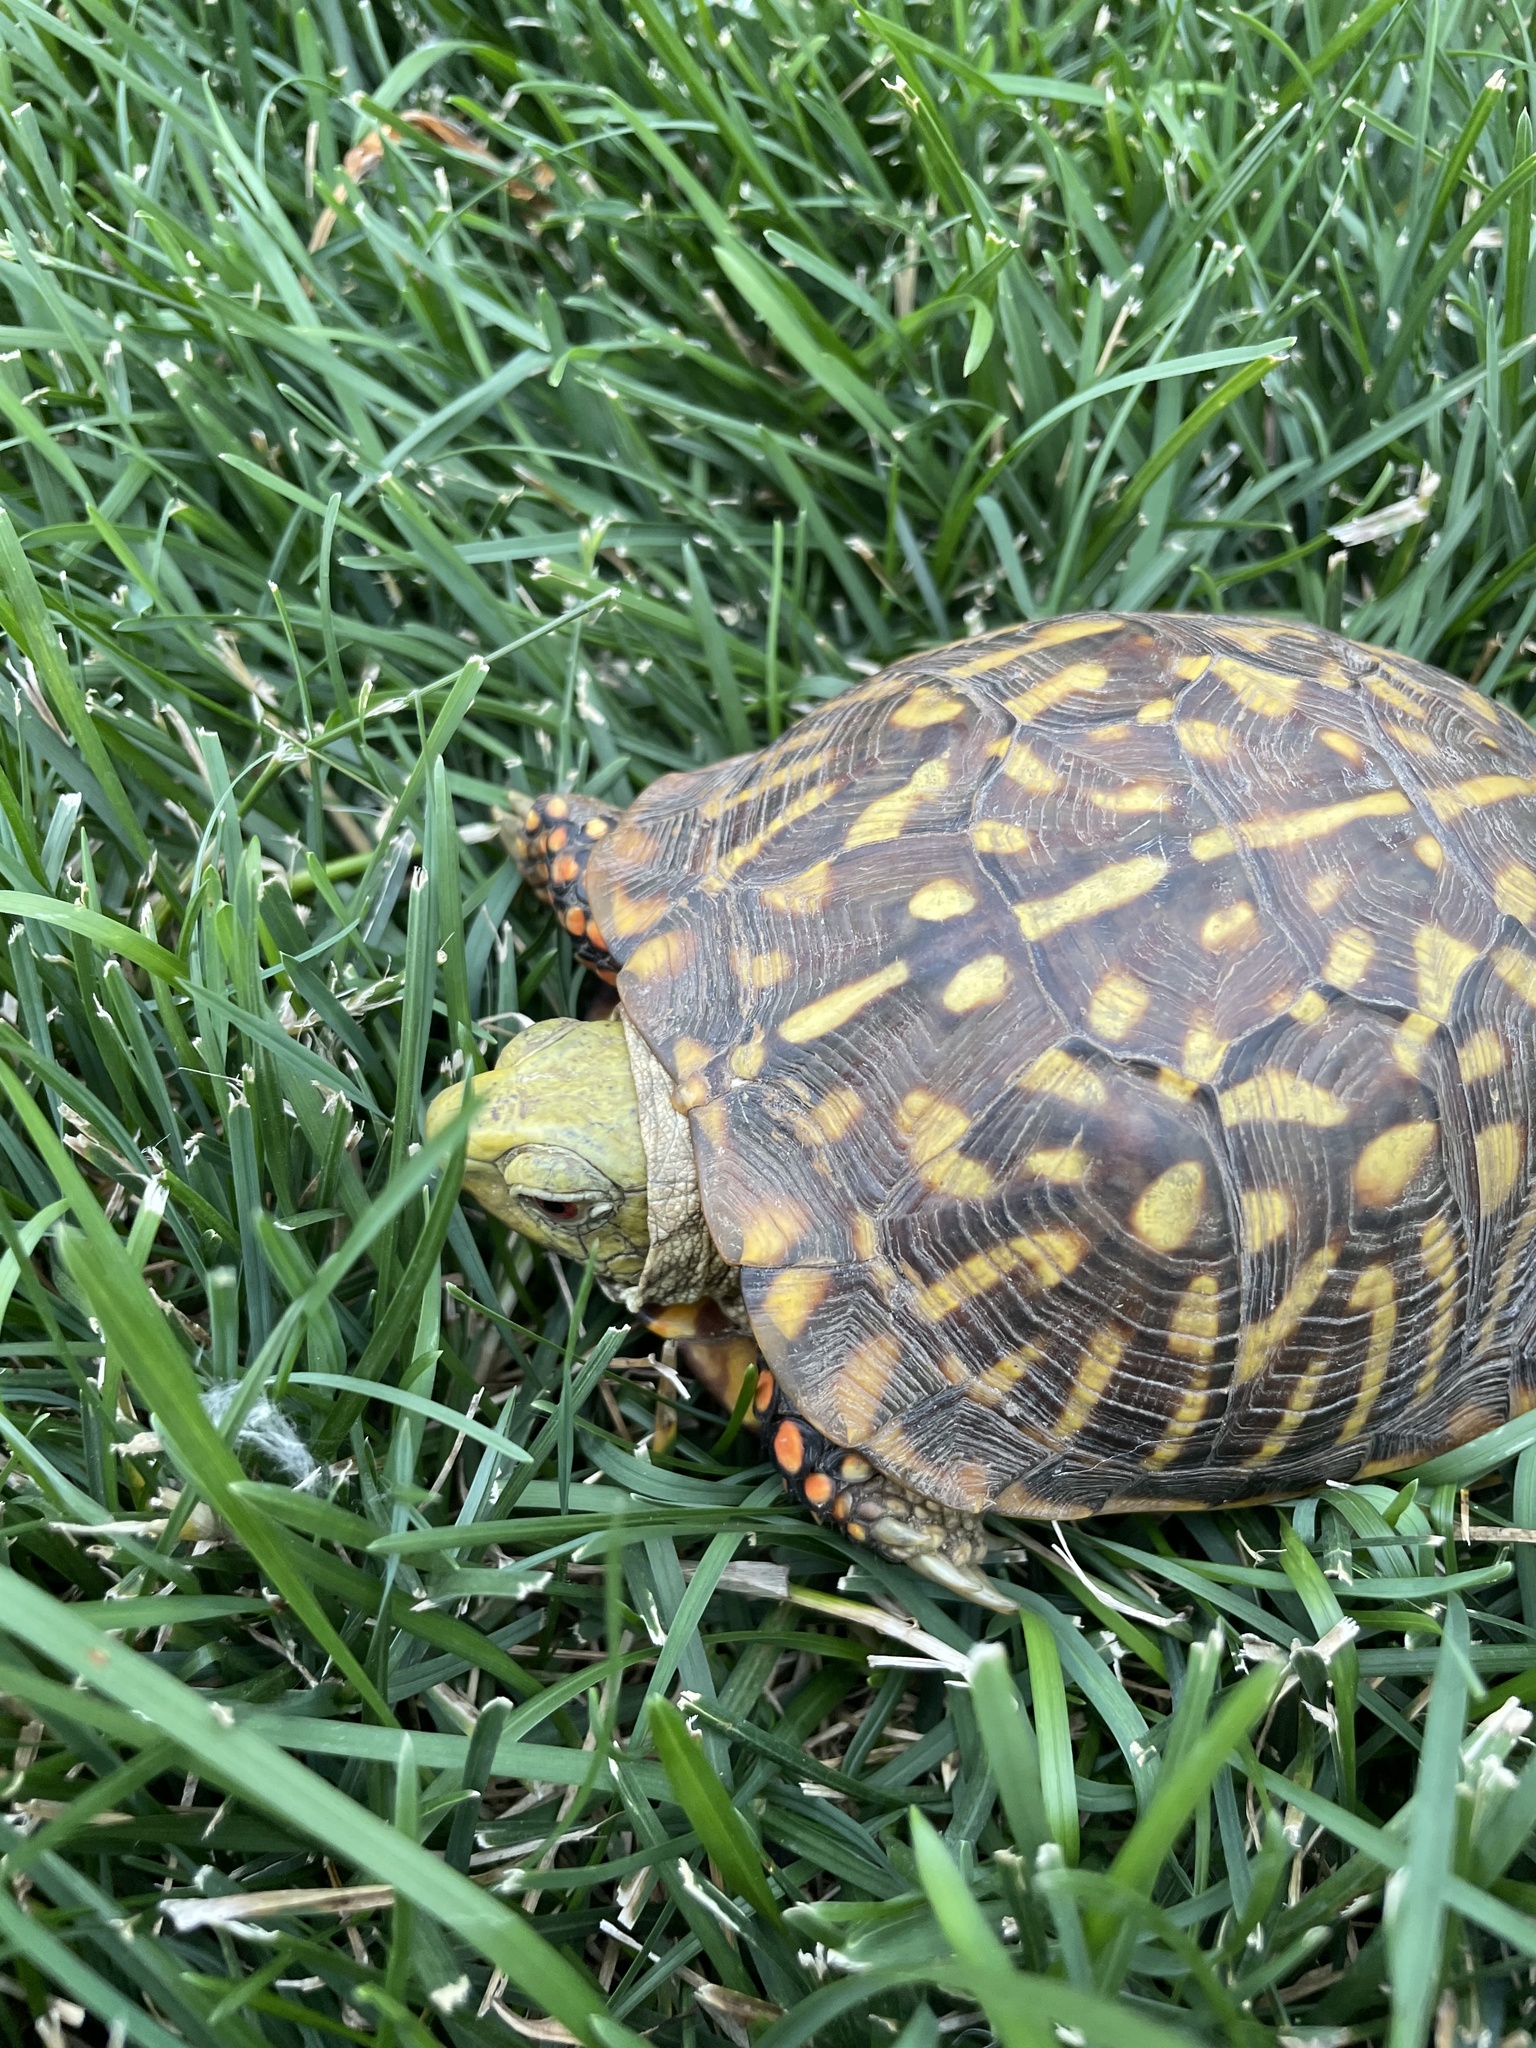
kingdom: Animalia
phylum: Chordata
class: Testudines
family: Emydidae
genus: Terrapene
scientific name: Terrapene ornata
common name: Western box turtle
